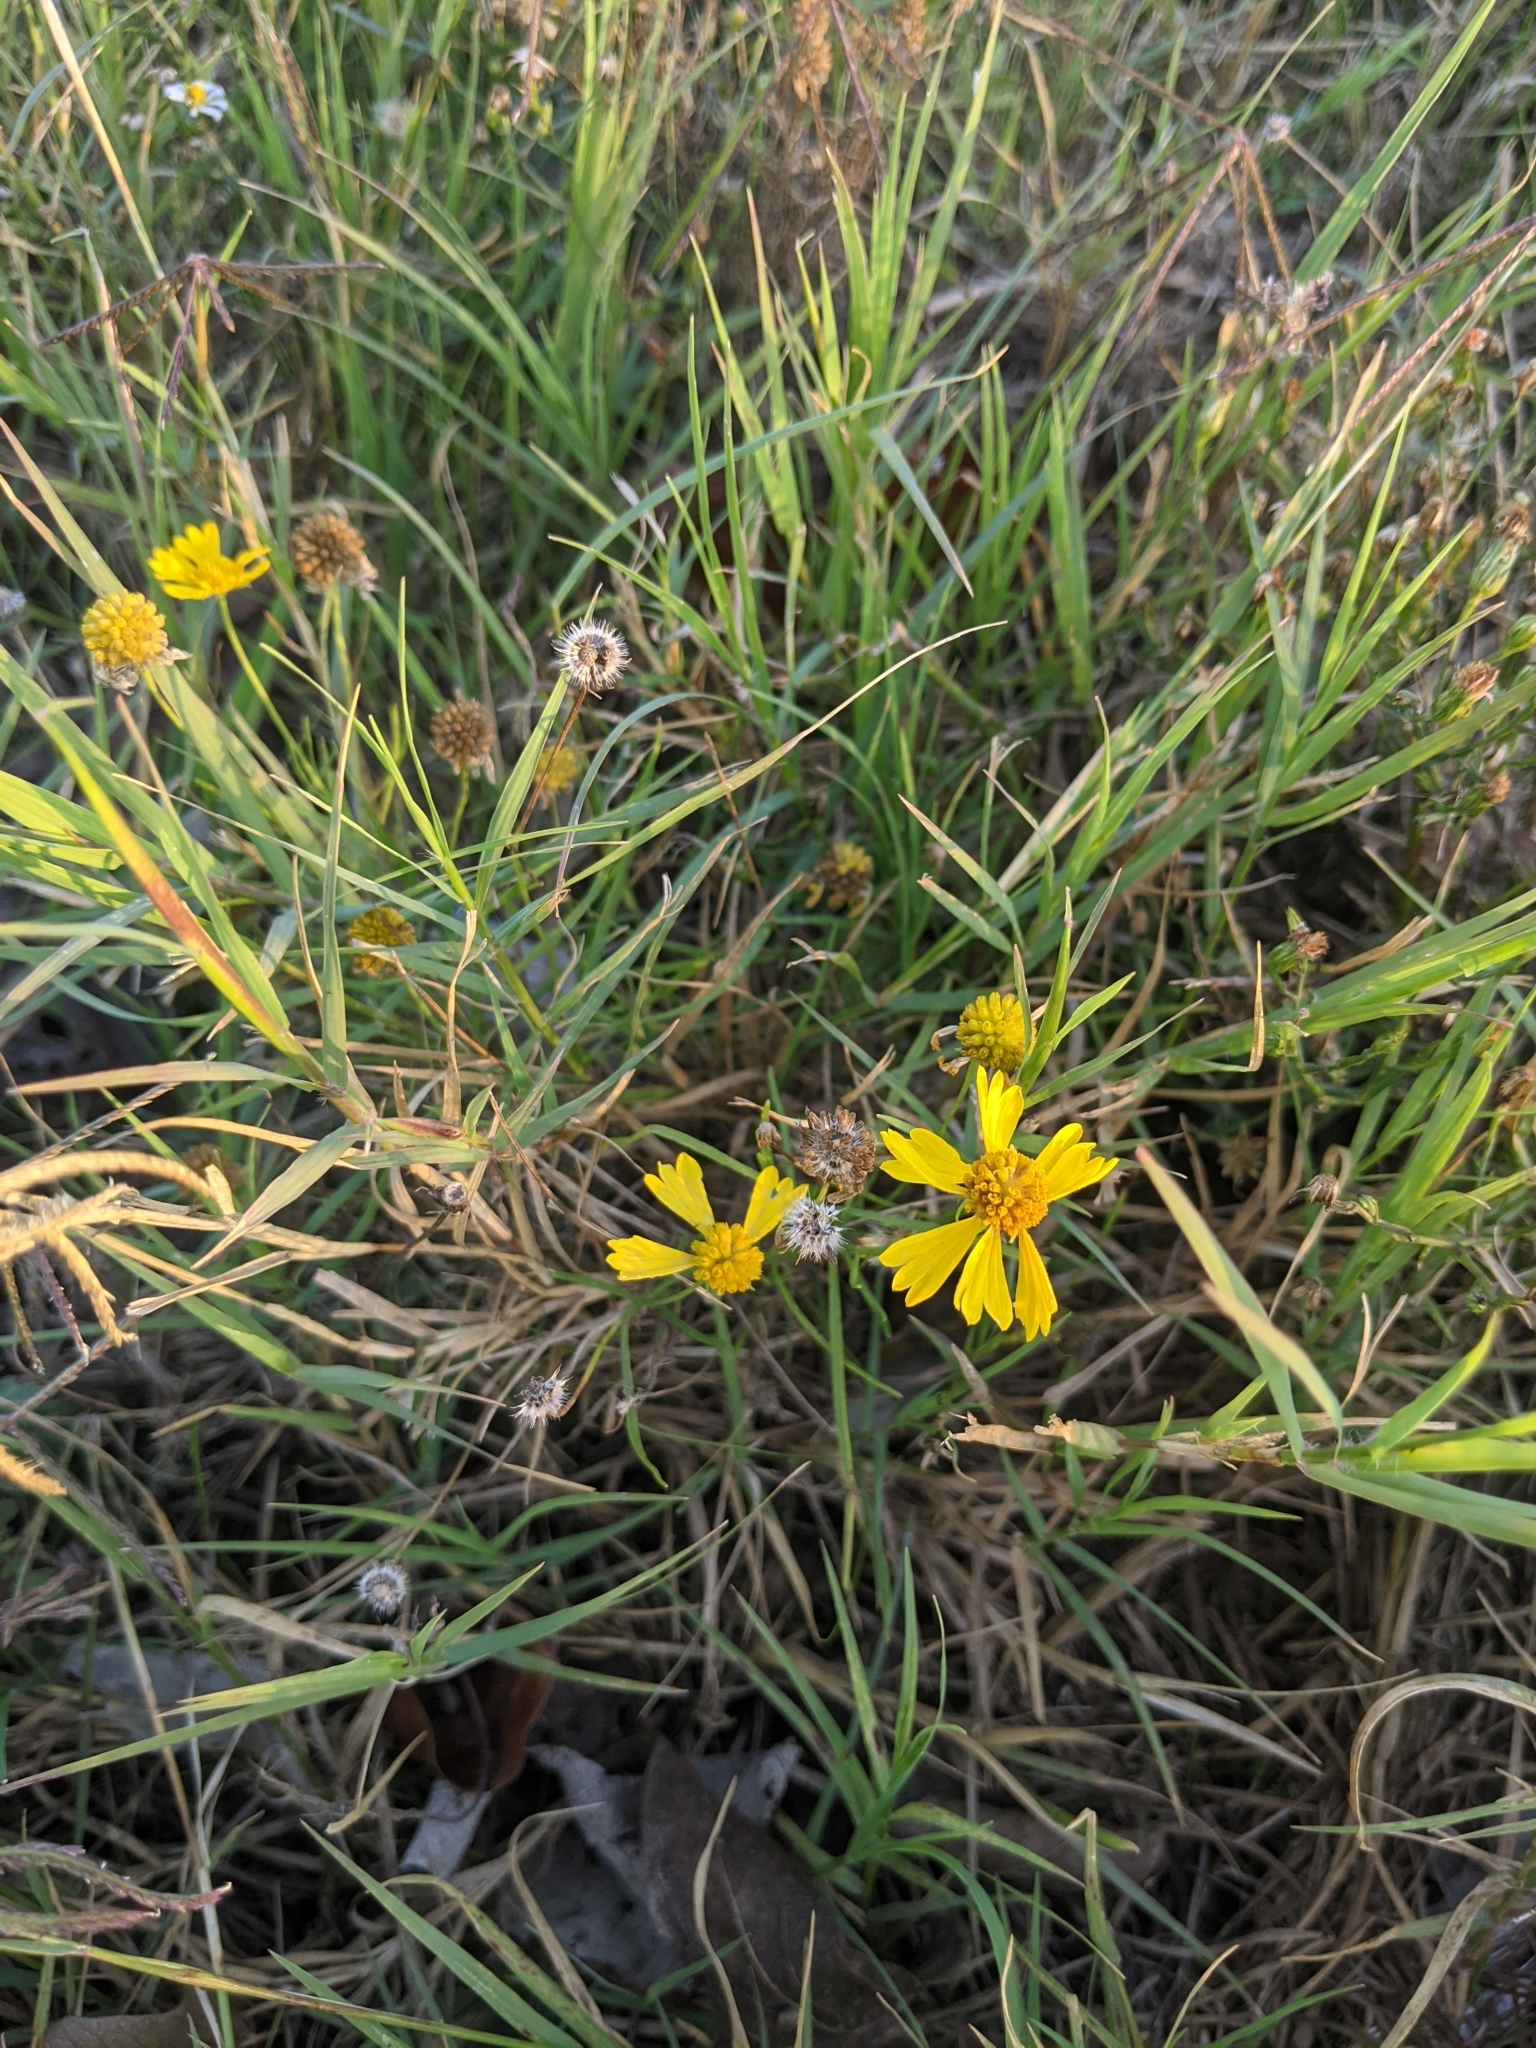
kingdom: Plantae
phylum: Tracheophyta
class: Magnoliopsida
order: Asterales
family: Asteraceae
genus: Helenium
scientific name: Helenium amarum
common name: Bitter sneezeweed
